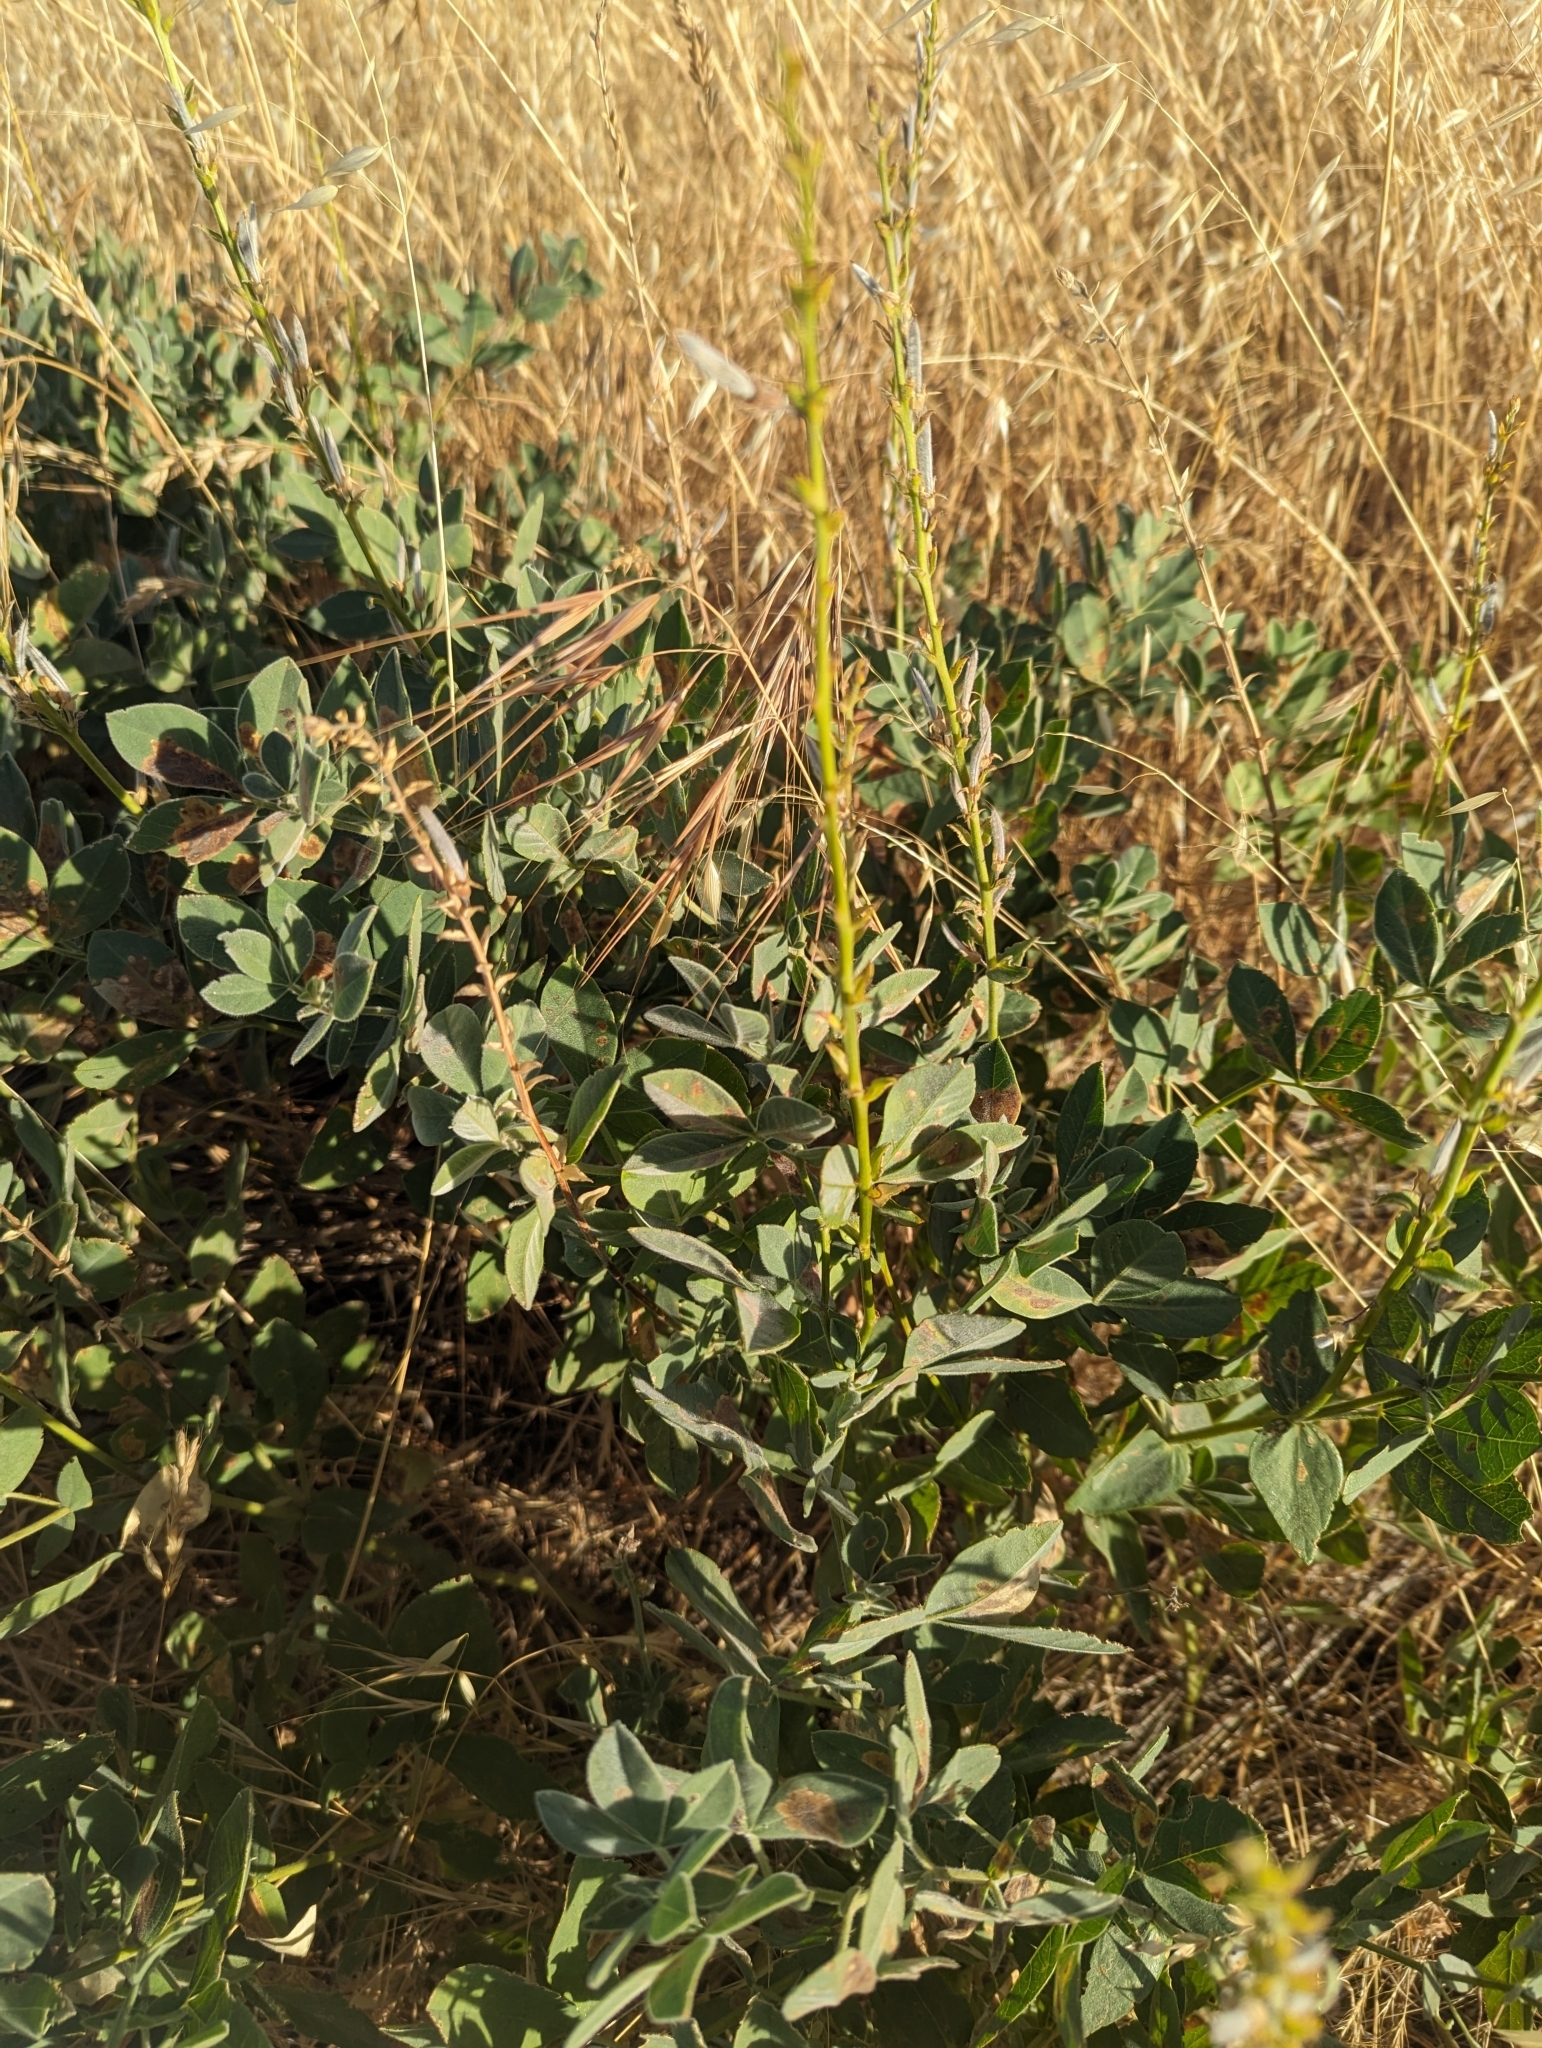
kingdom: Plantae
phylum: Tracheophyta
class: Magnoliopsida
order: Fabales
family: Fabaceae
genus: Thermopsis
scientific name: Thermopsis californica
